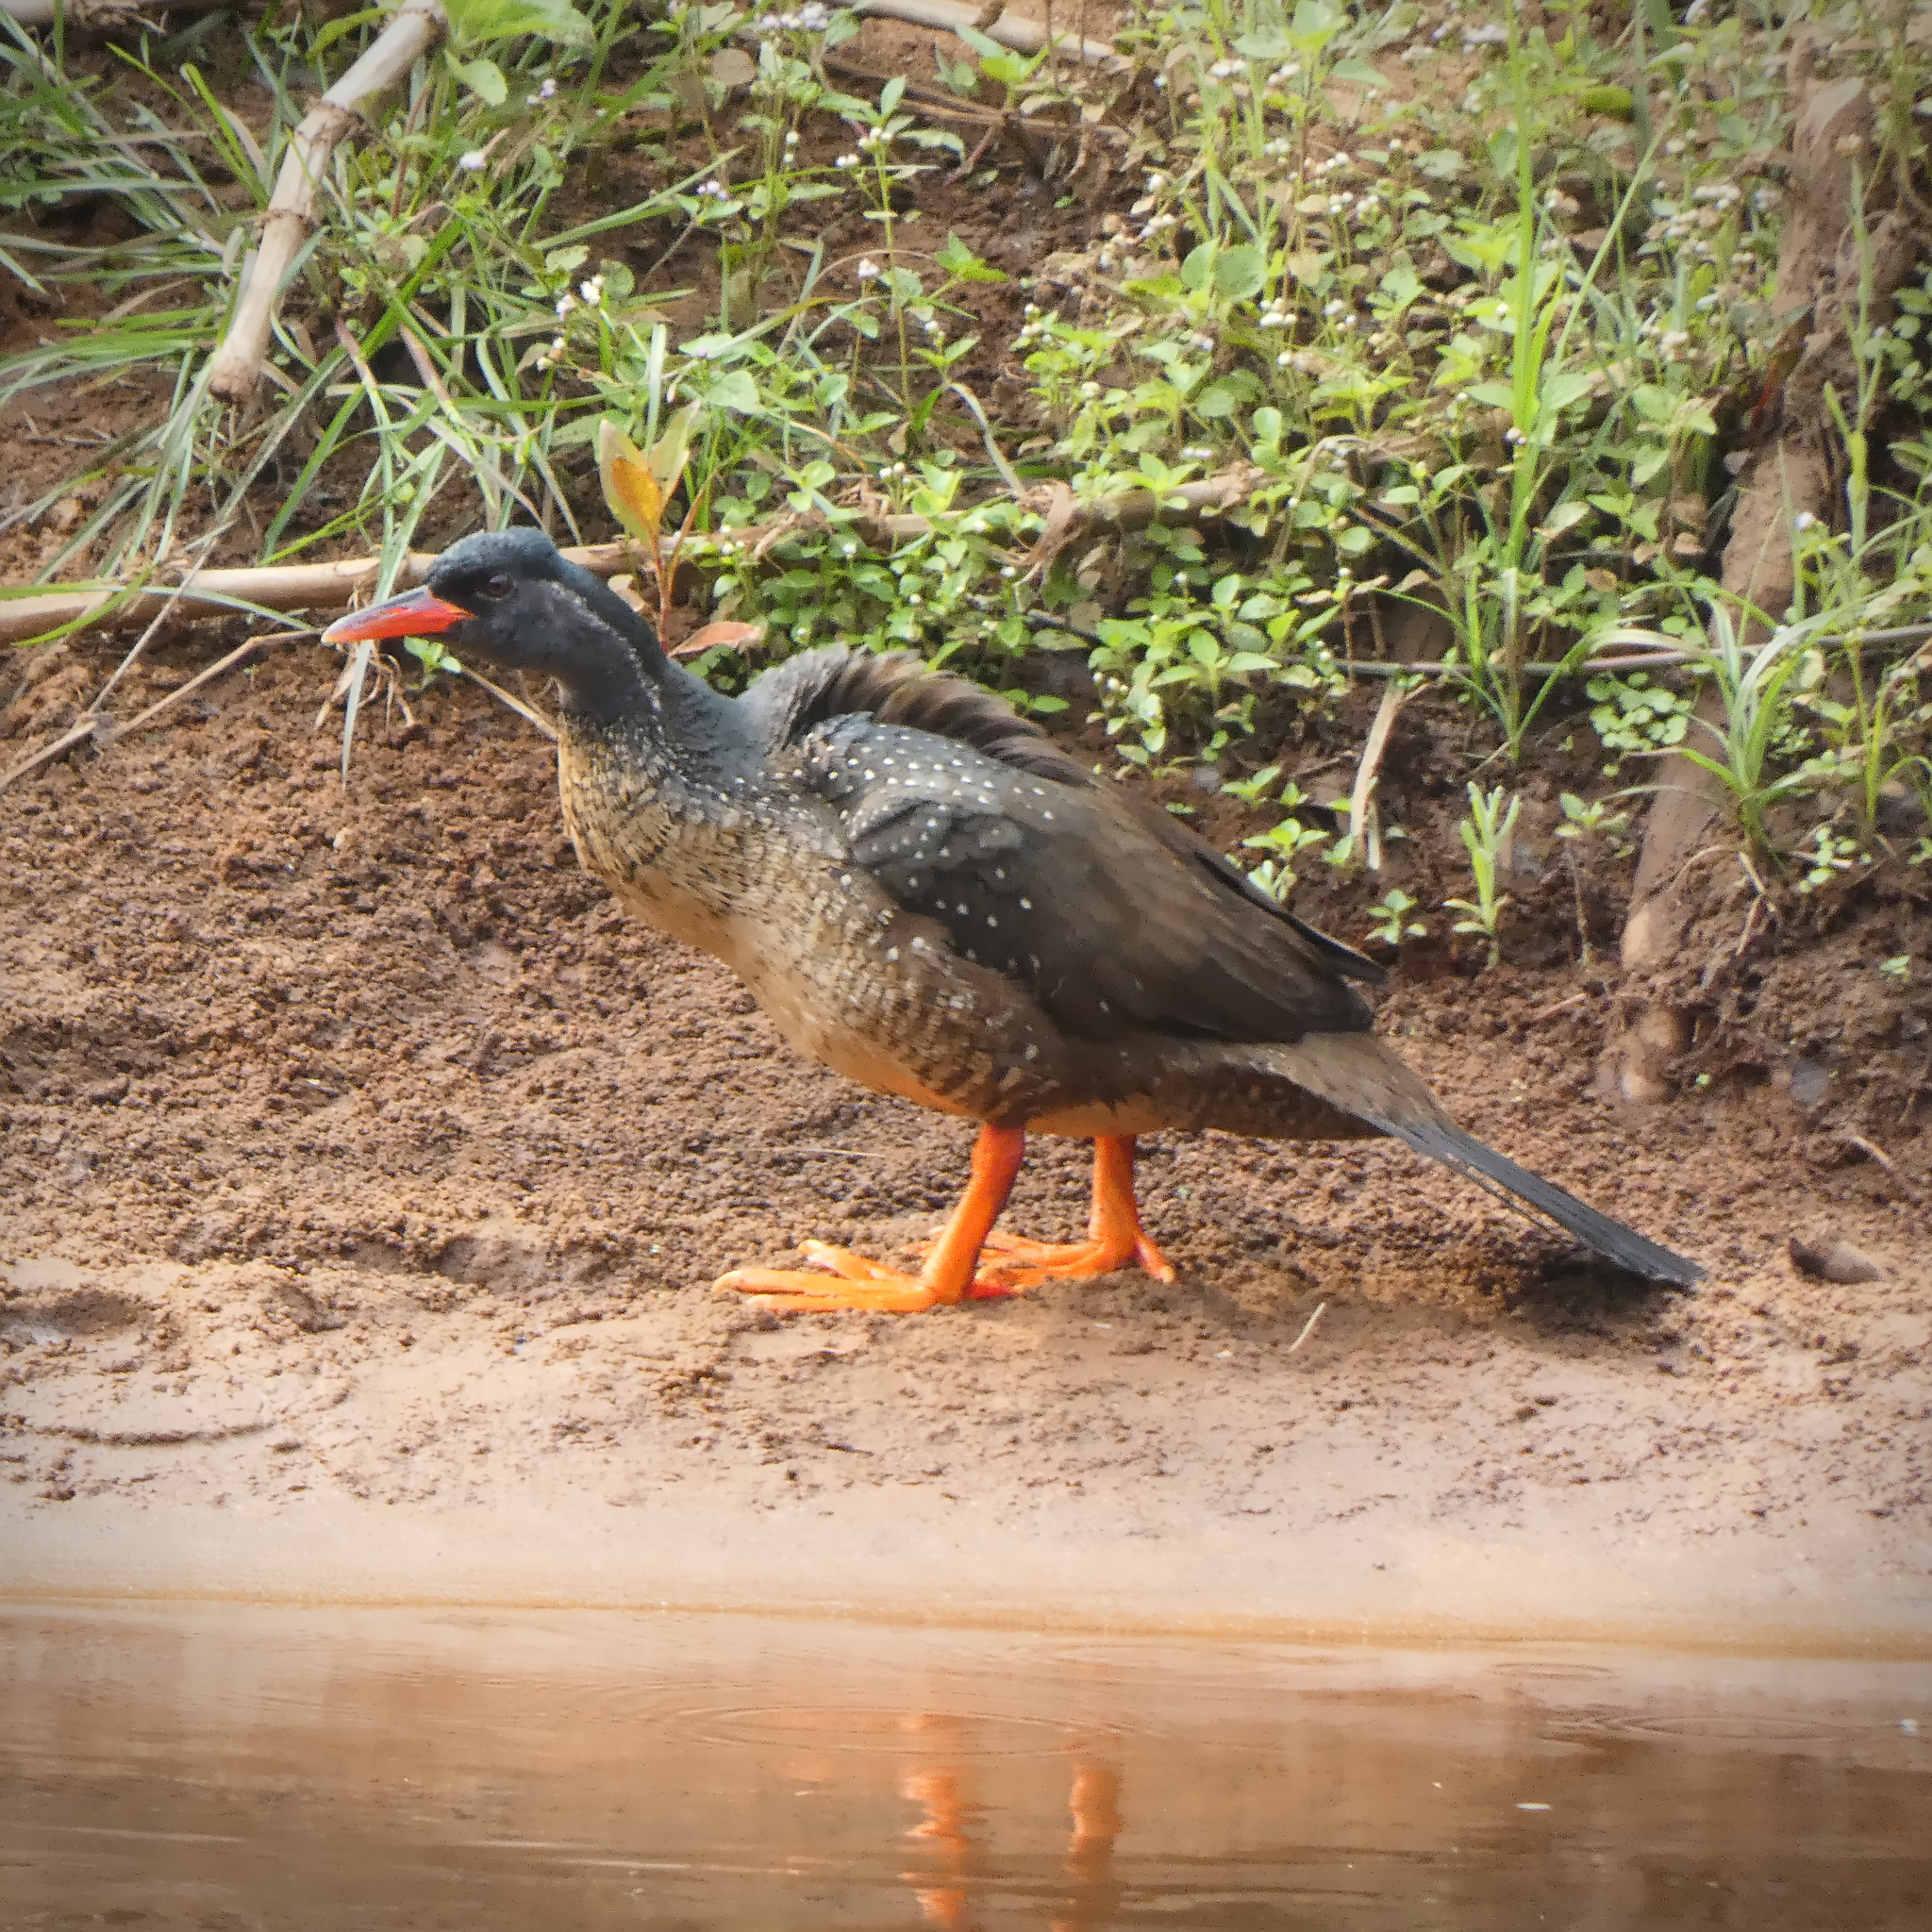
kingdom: Animalia
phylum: Chordata
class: Aves
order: Gruiformes
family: Heliornithidae
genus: Podica
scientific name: Podica senegalensis
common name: African finfoot
